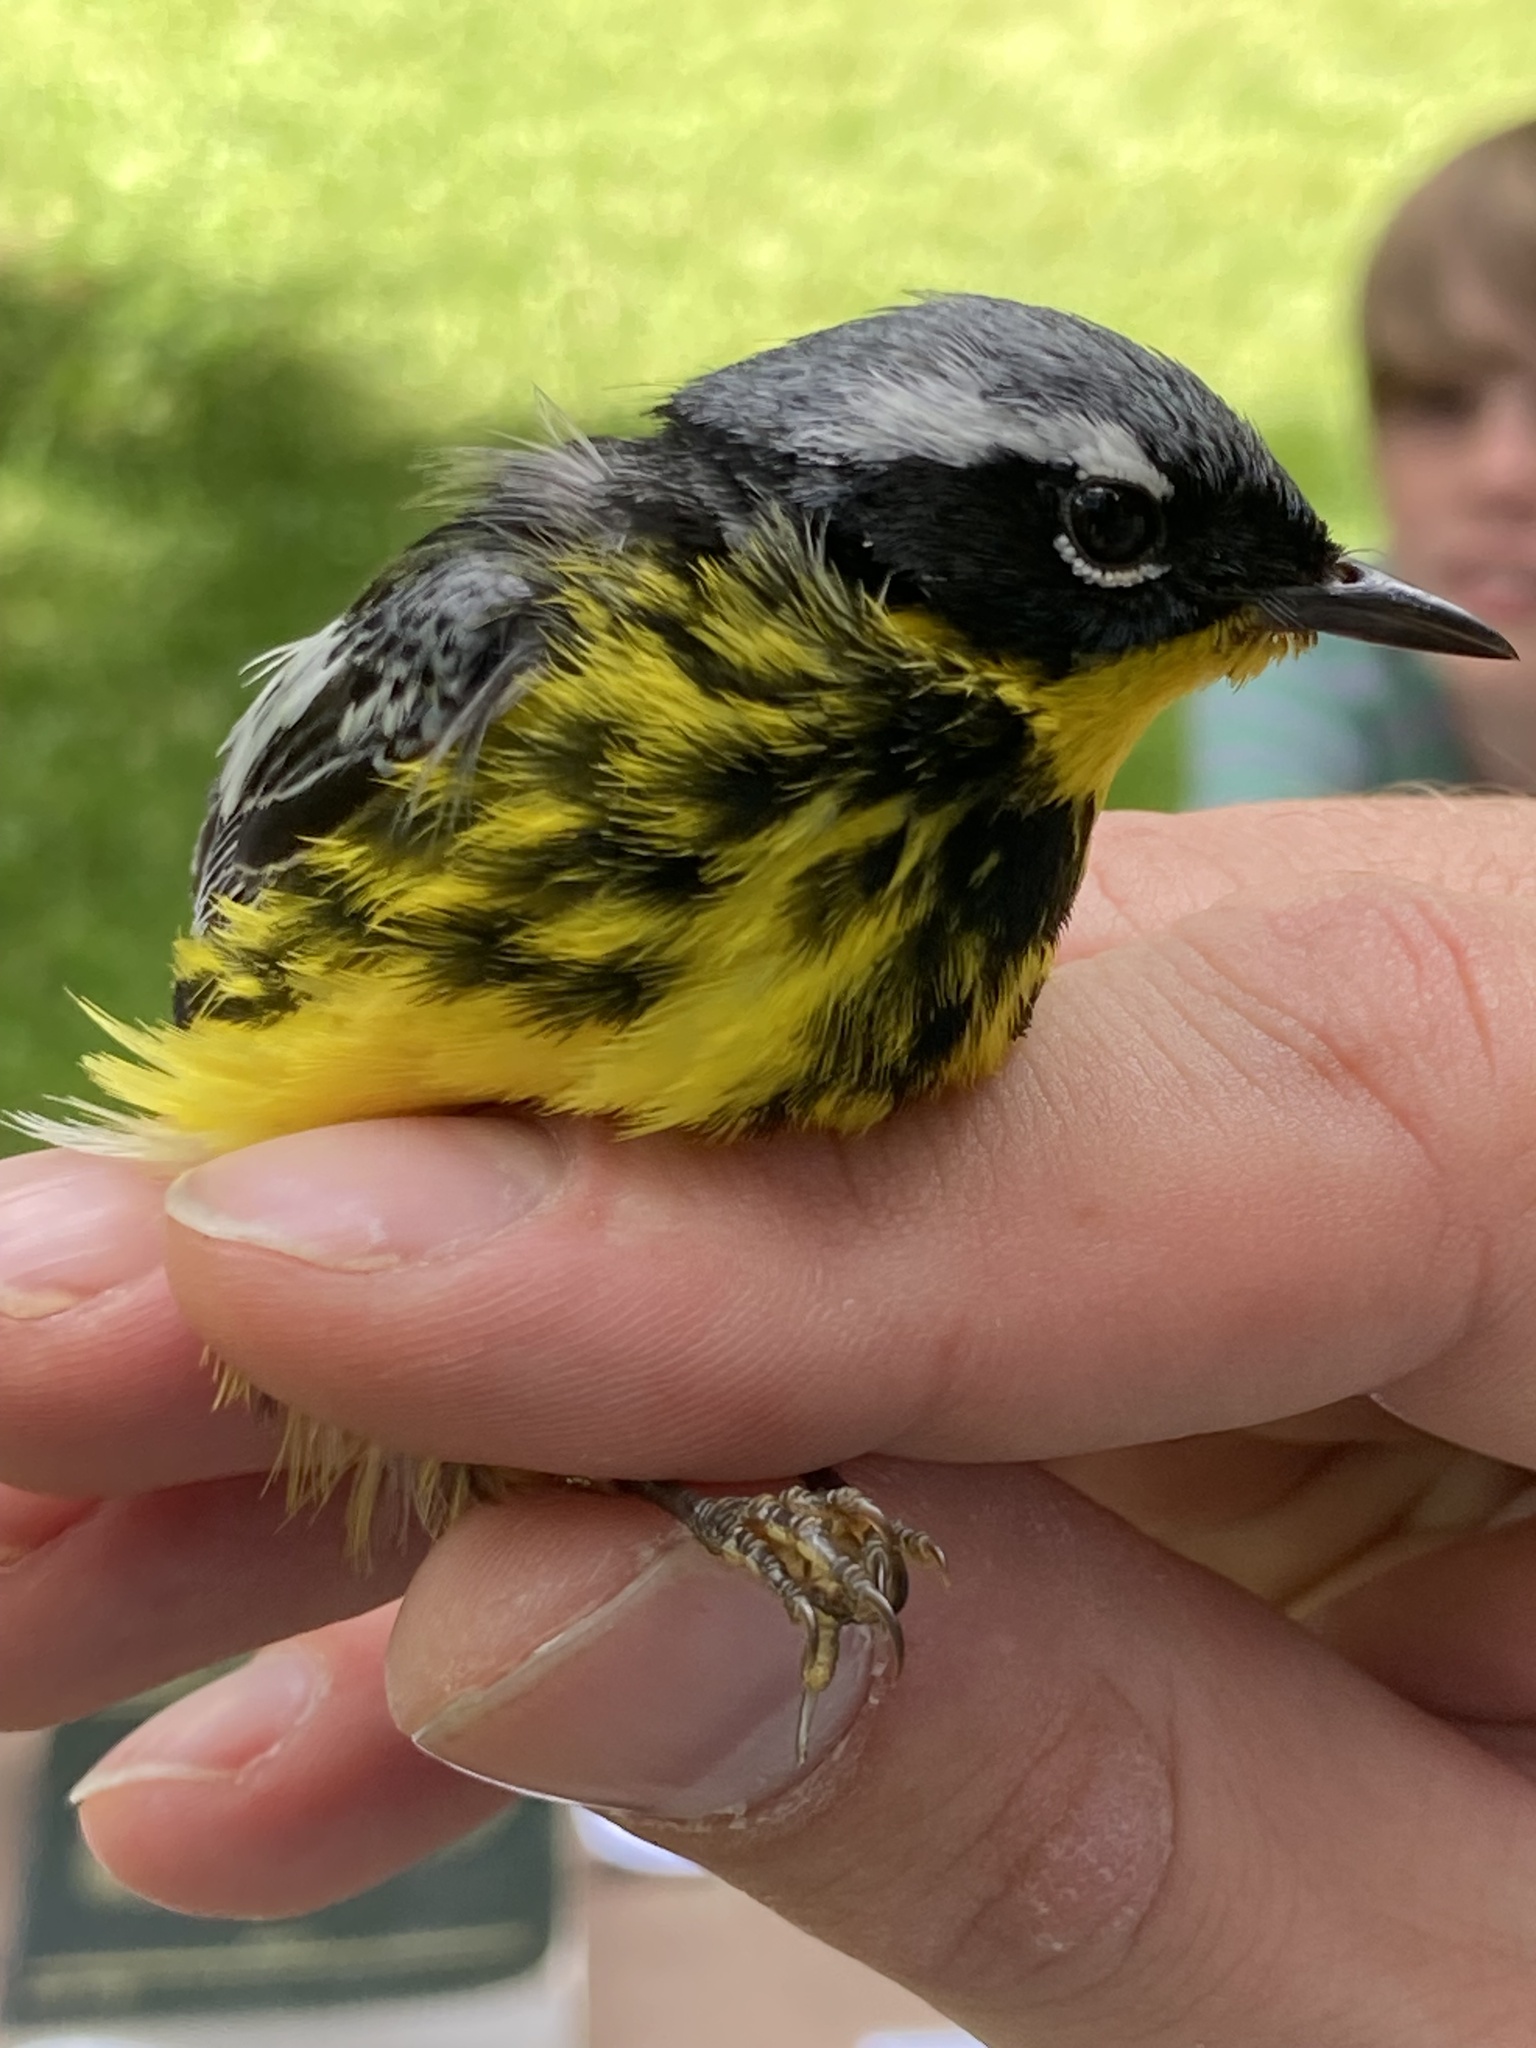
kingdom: Animalia
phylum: Chordata
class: Aves
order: Passeriformes
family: Parulidae
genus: Setophaga
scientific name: Setophaga magnolia
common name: Magnolia warbler
